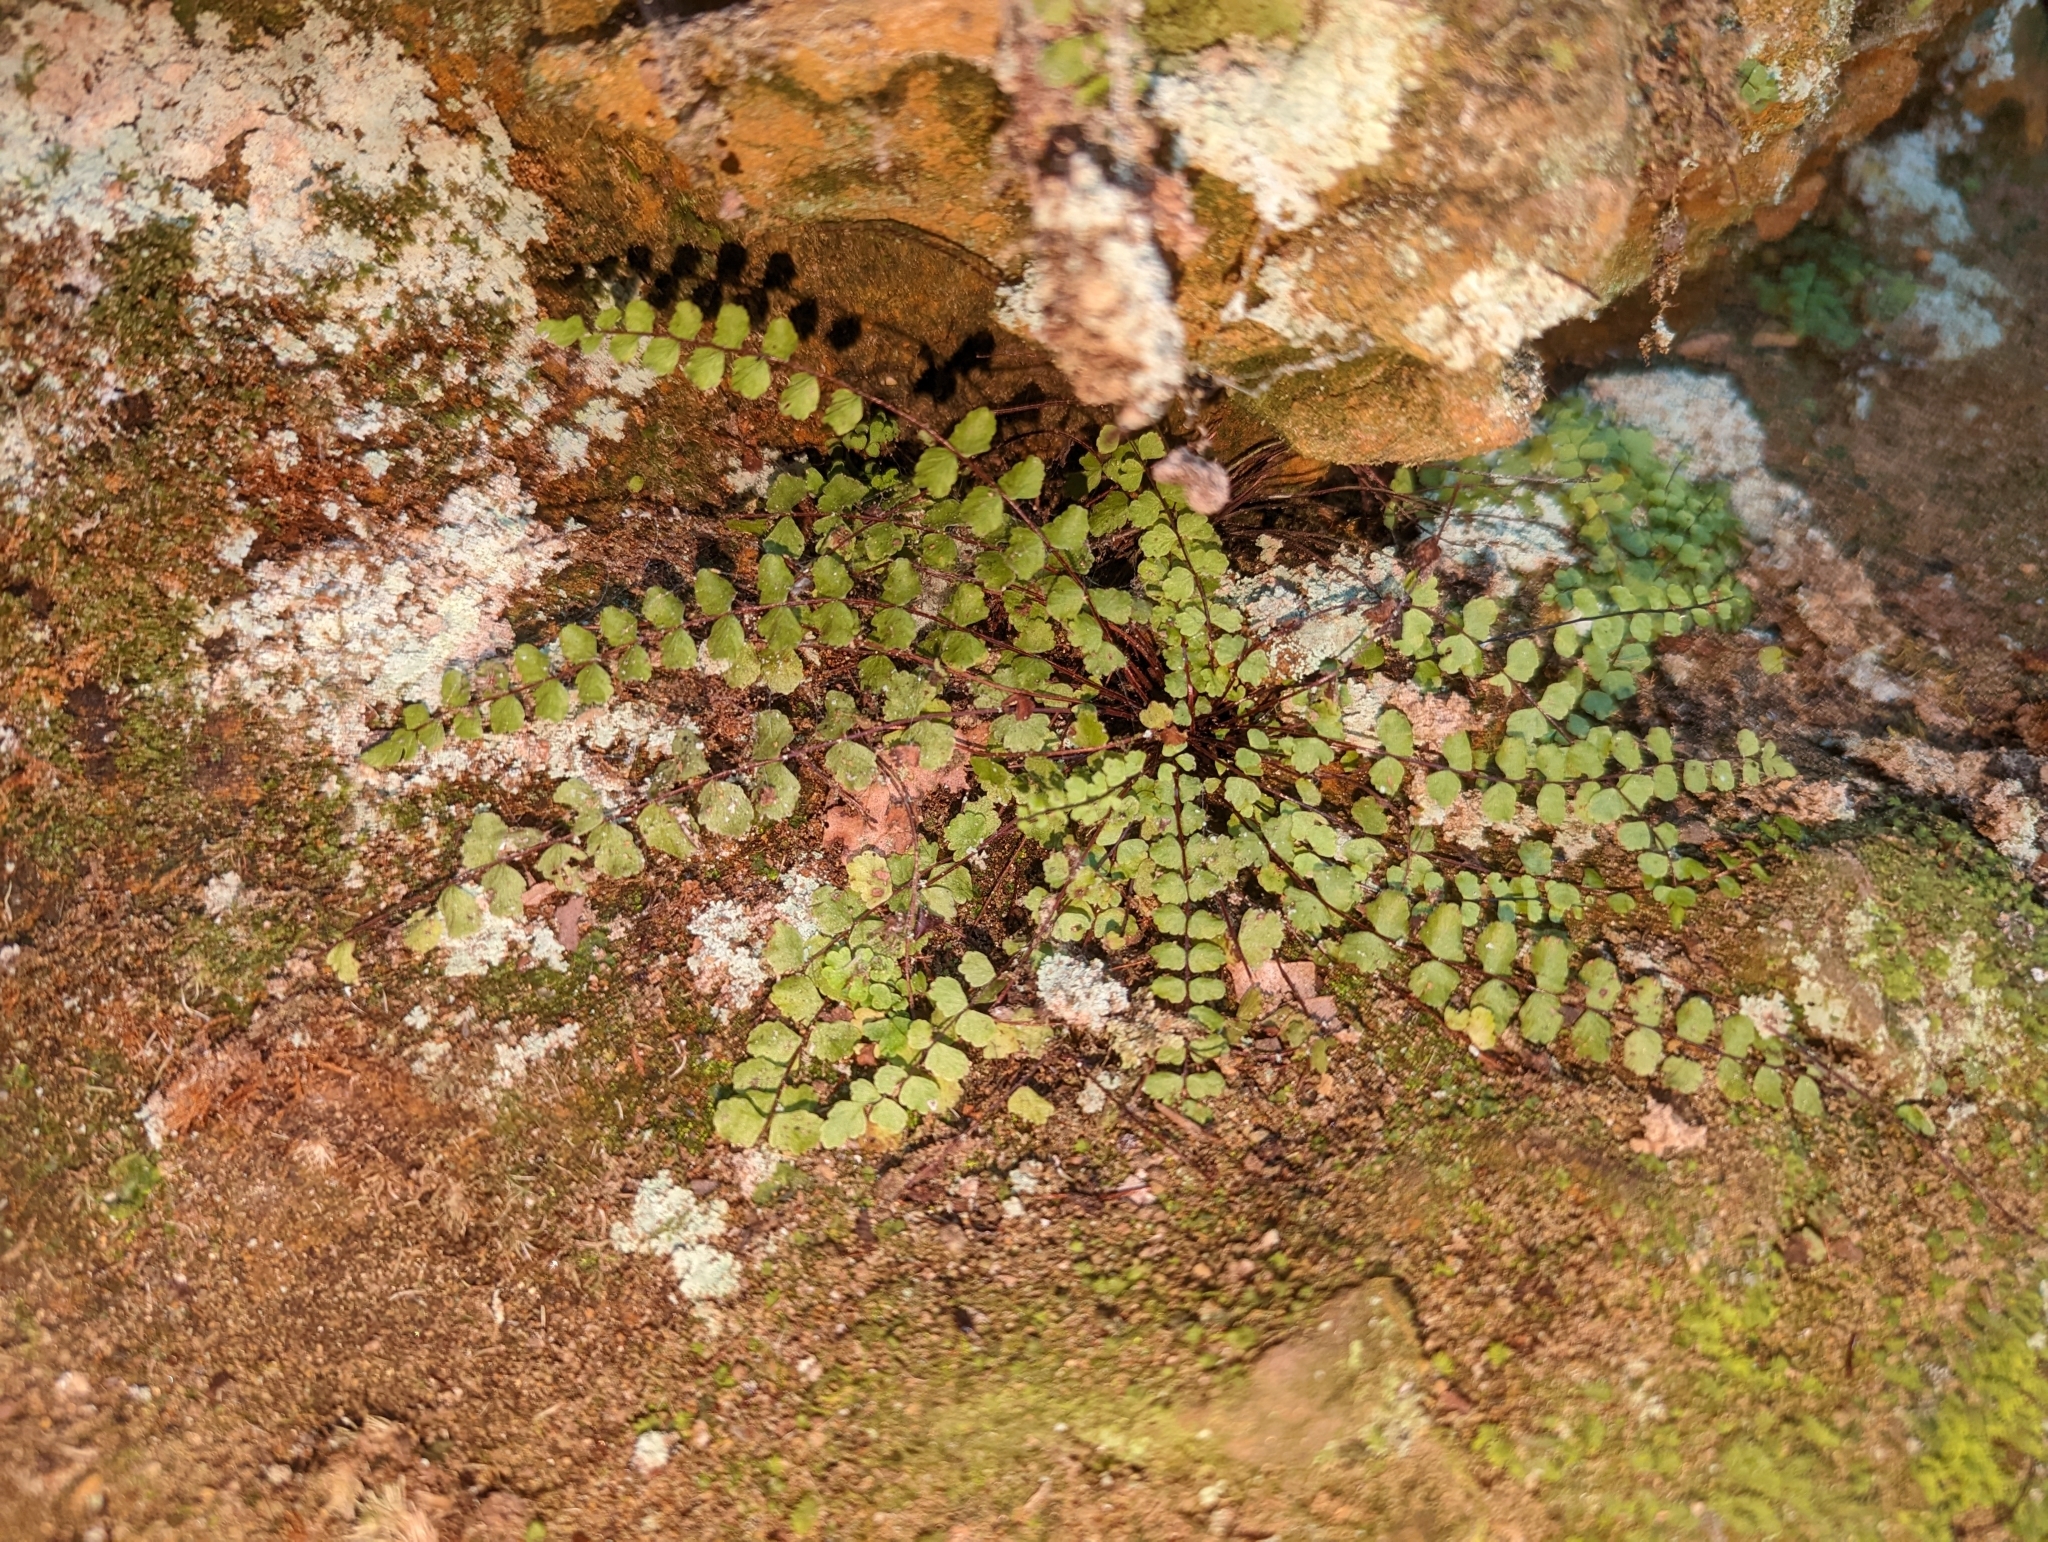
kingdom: Plantae
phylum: Tracheophyta
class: Polypodiopsida
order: Polypodiales
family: Aspleniaceae
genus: Asplenium
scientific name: Asplenium trichomanes
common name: Maidenhair spleenwort
